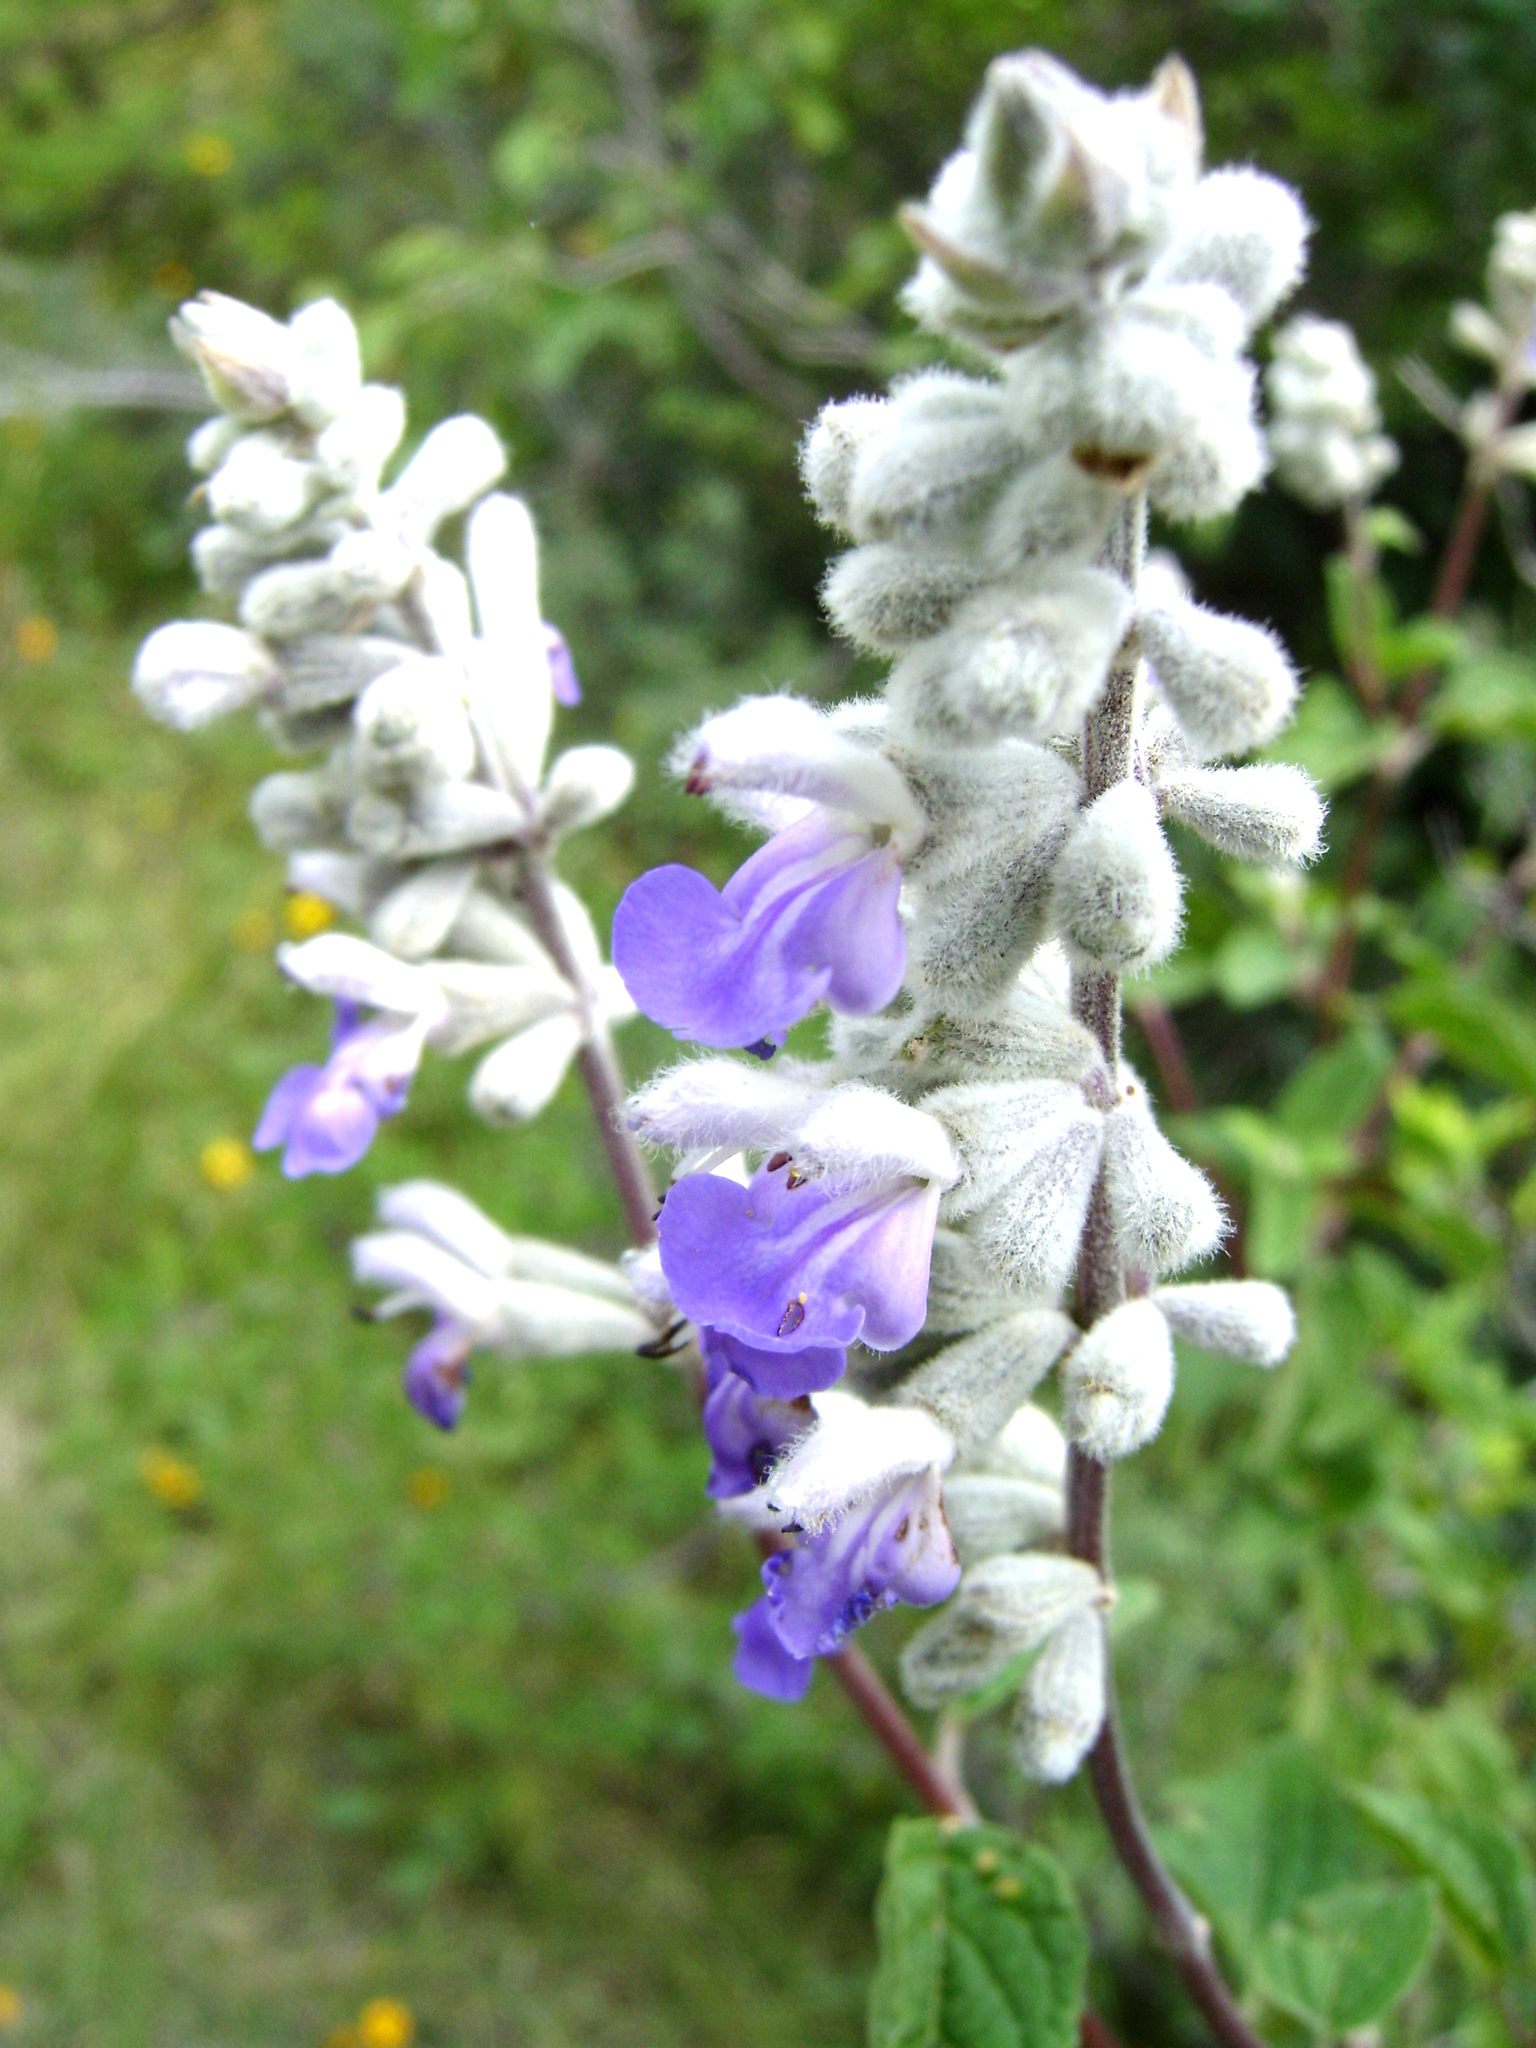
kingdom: Plantae
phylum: Tracheophyta
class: Magnoliopsida
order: Lamiales
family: Lamiaceae
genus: Salvia
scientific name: Salvia boegei
